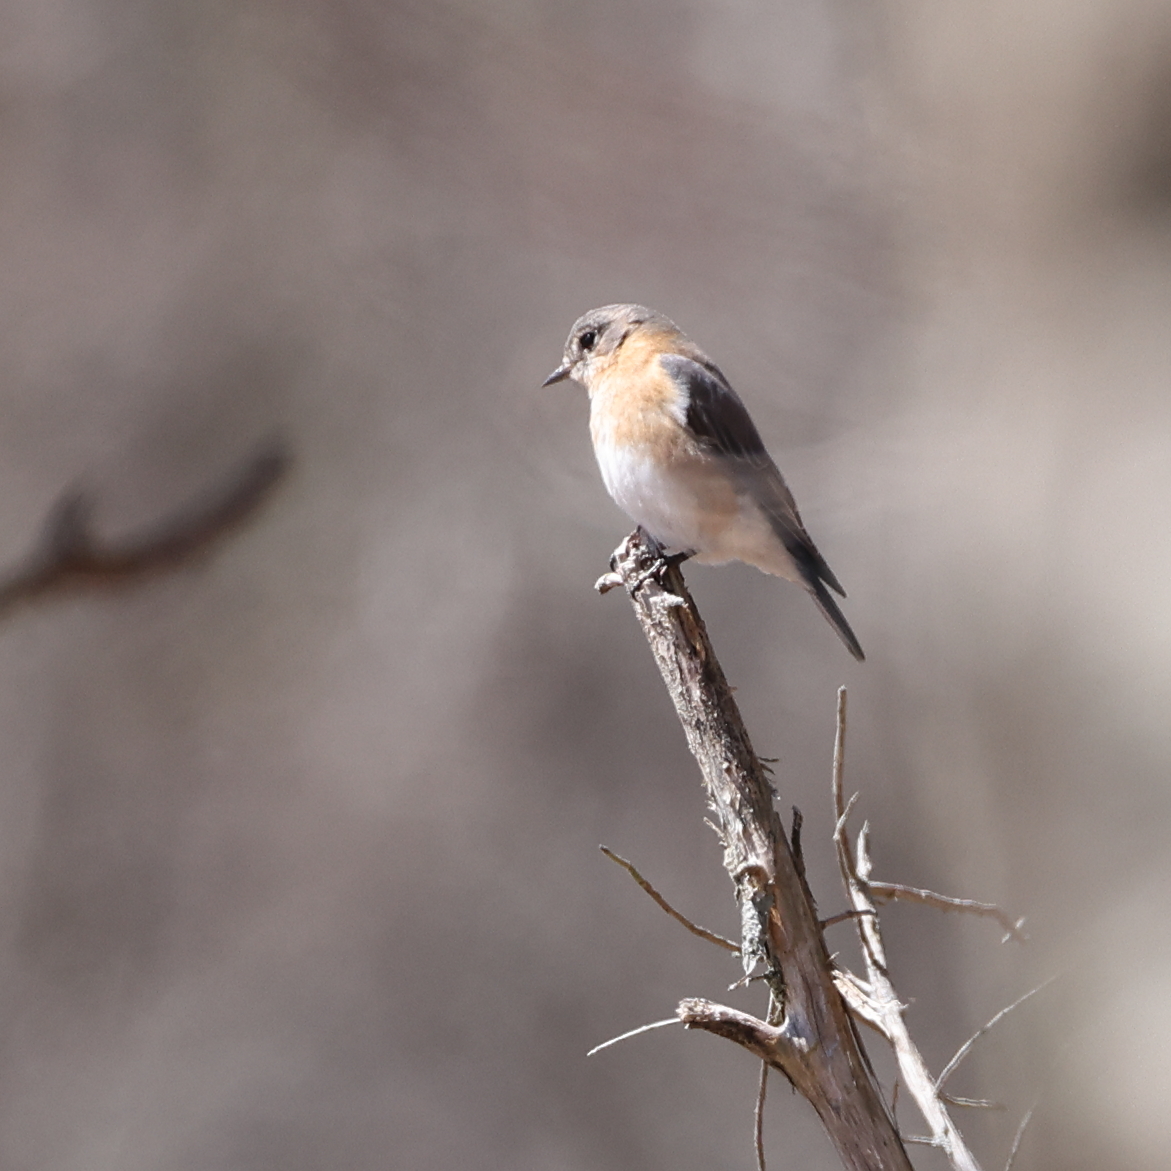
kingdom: Animalia
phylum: Chordata
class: Aves
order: Passeriformes
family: Turdidae
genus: Sialia
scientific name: Sialia sialis
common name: Eastern bluebird
